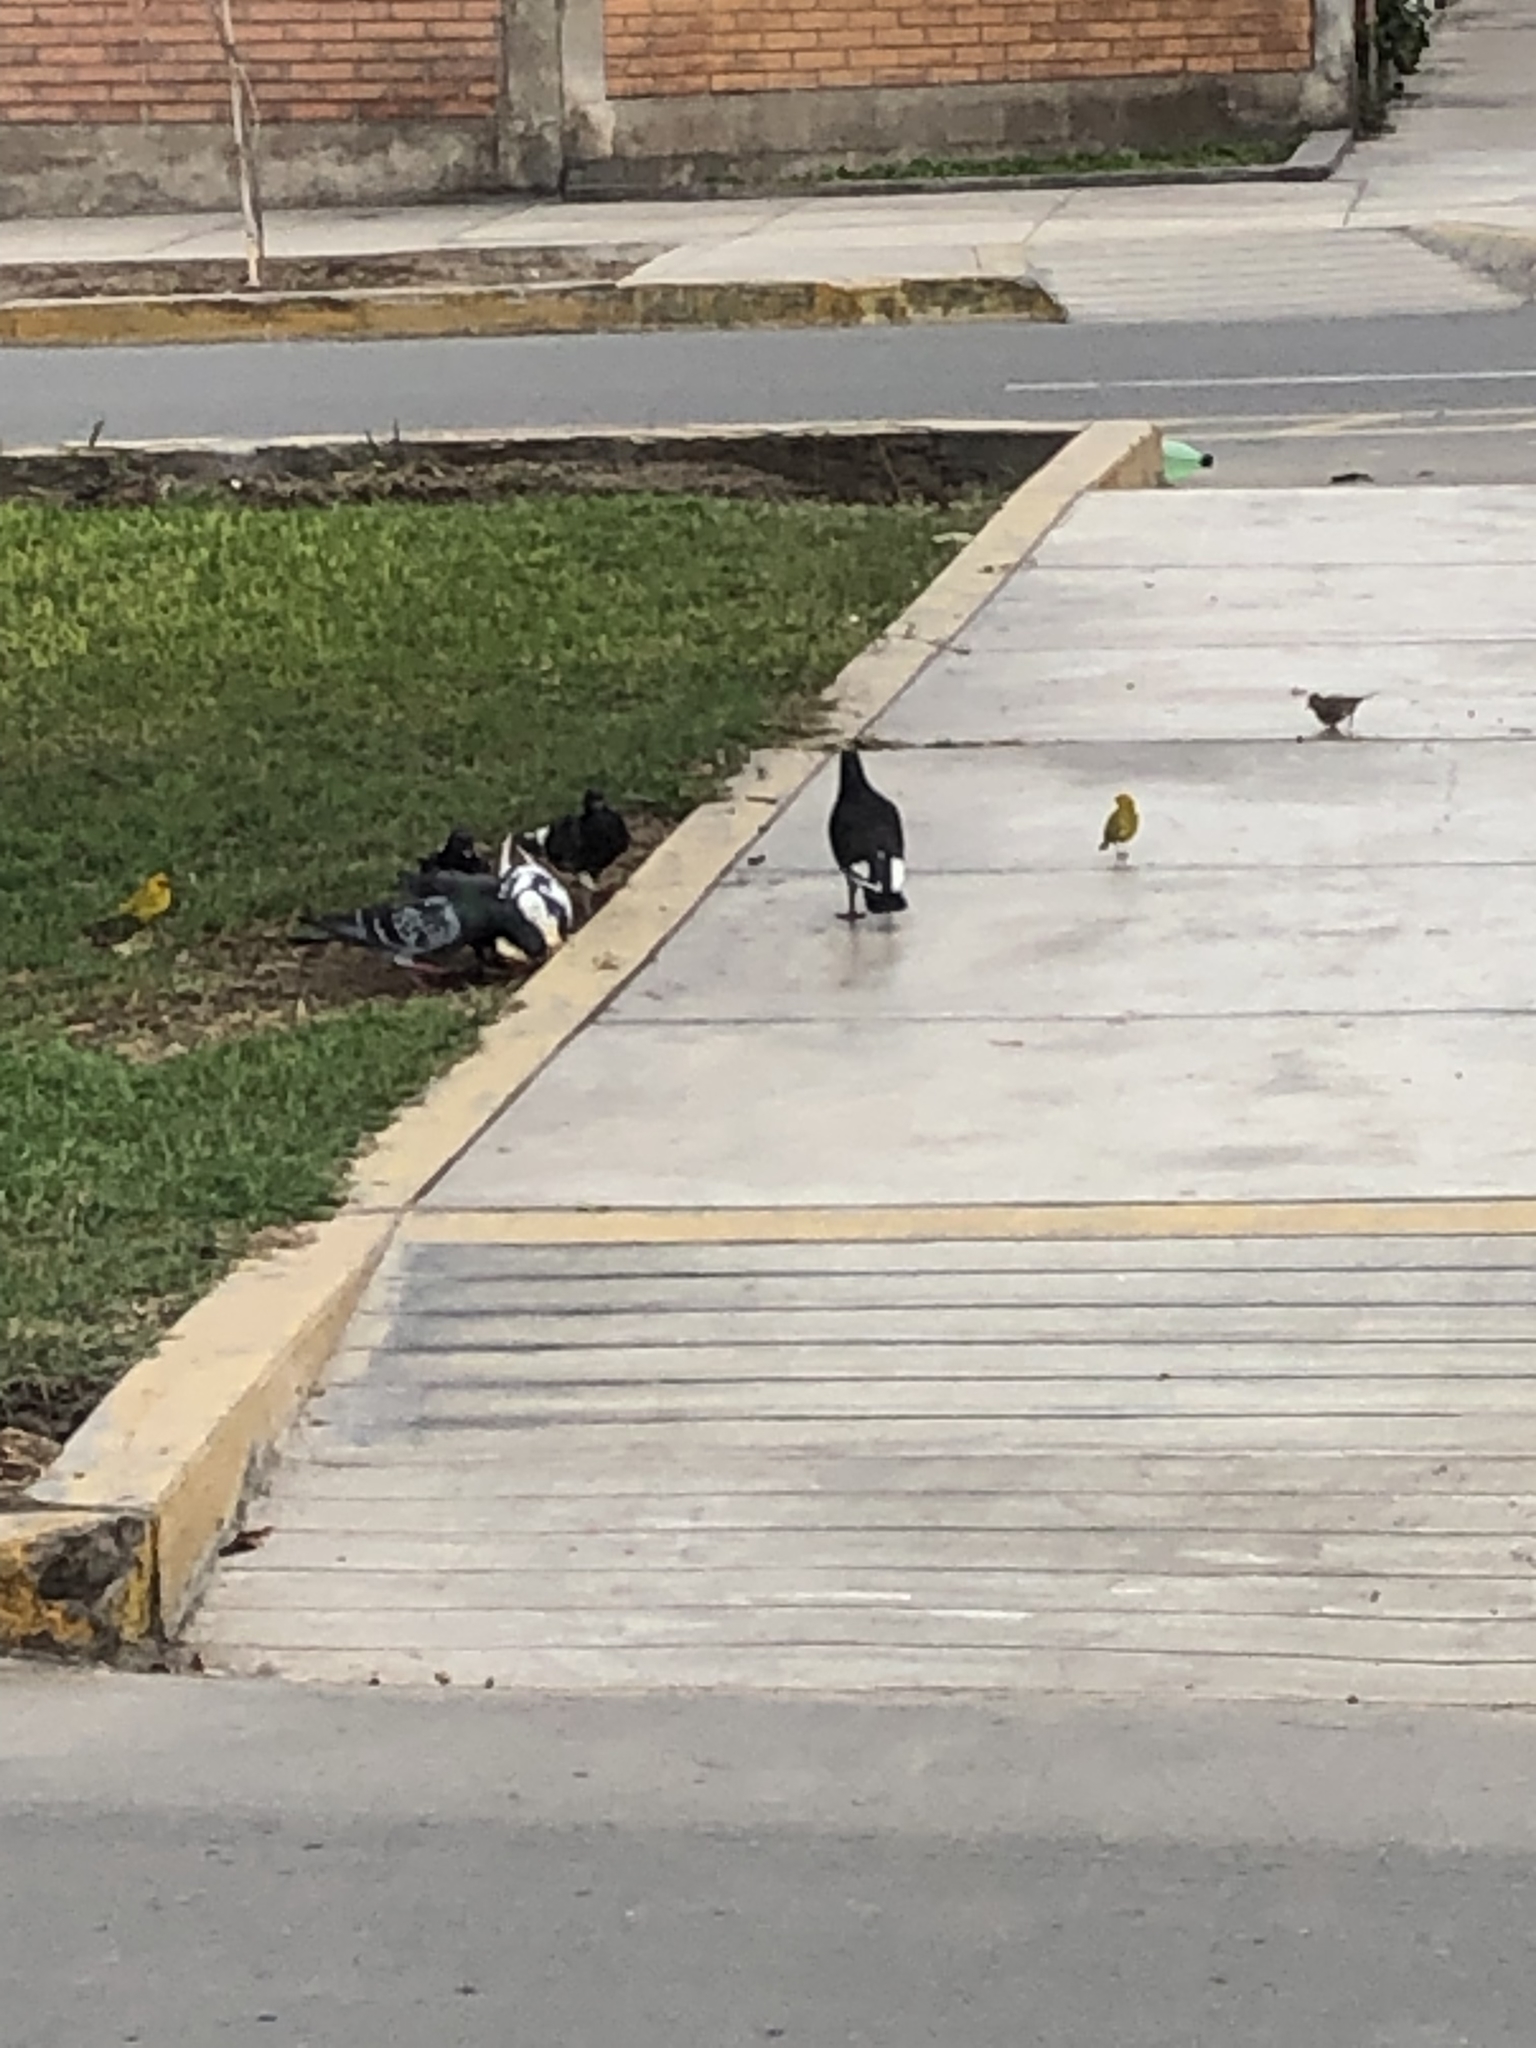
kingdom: Animalia
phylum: Chordata
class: Aves
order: Columbiformes
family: Columbidae
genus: Columba
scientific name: Columba livia
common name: Rock pigeon
